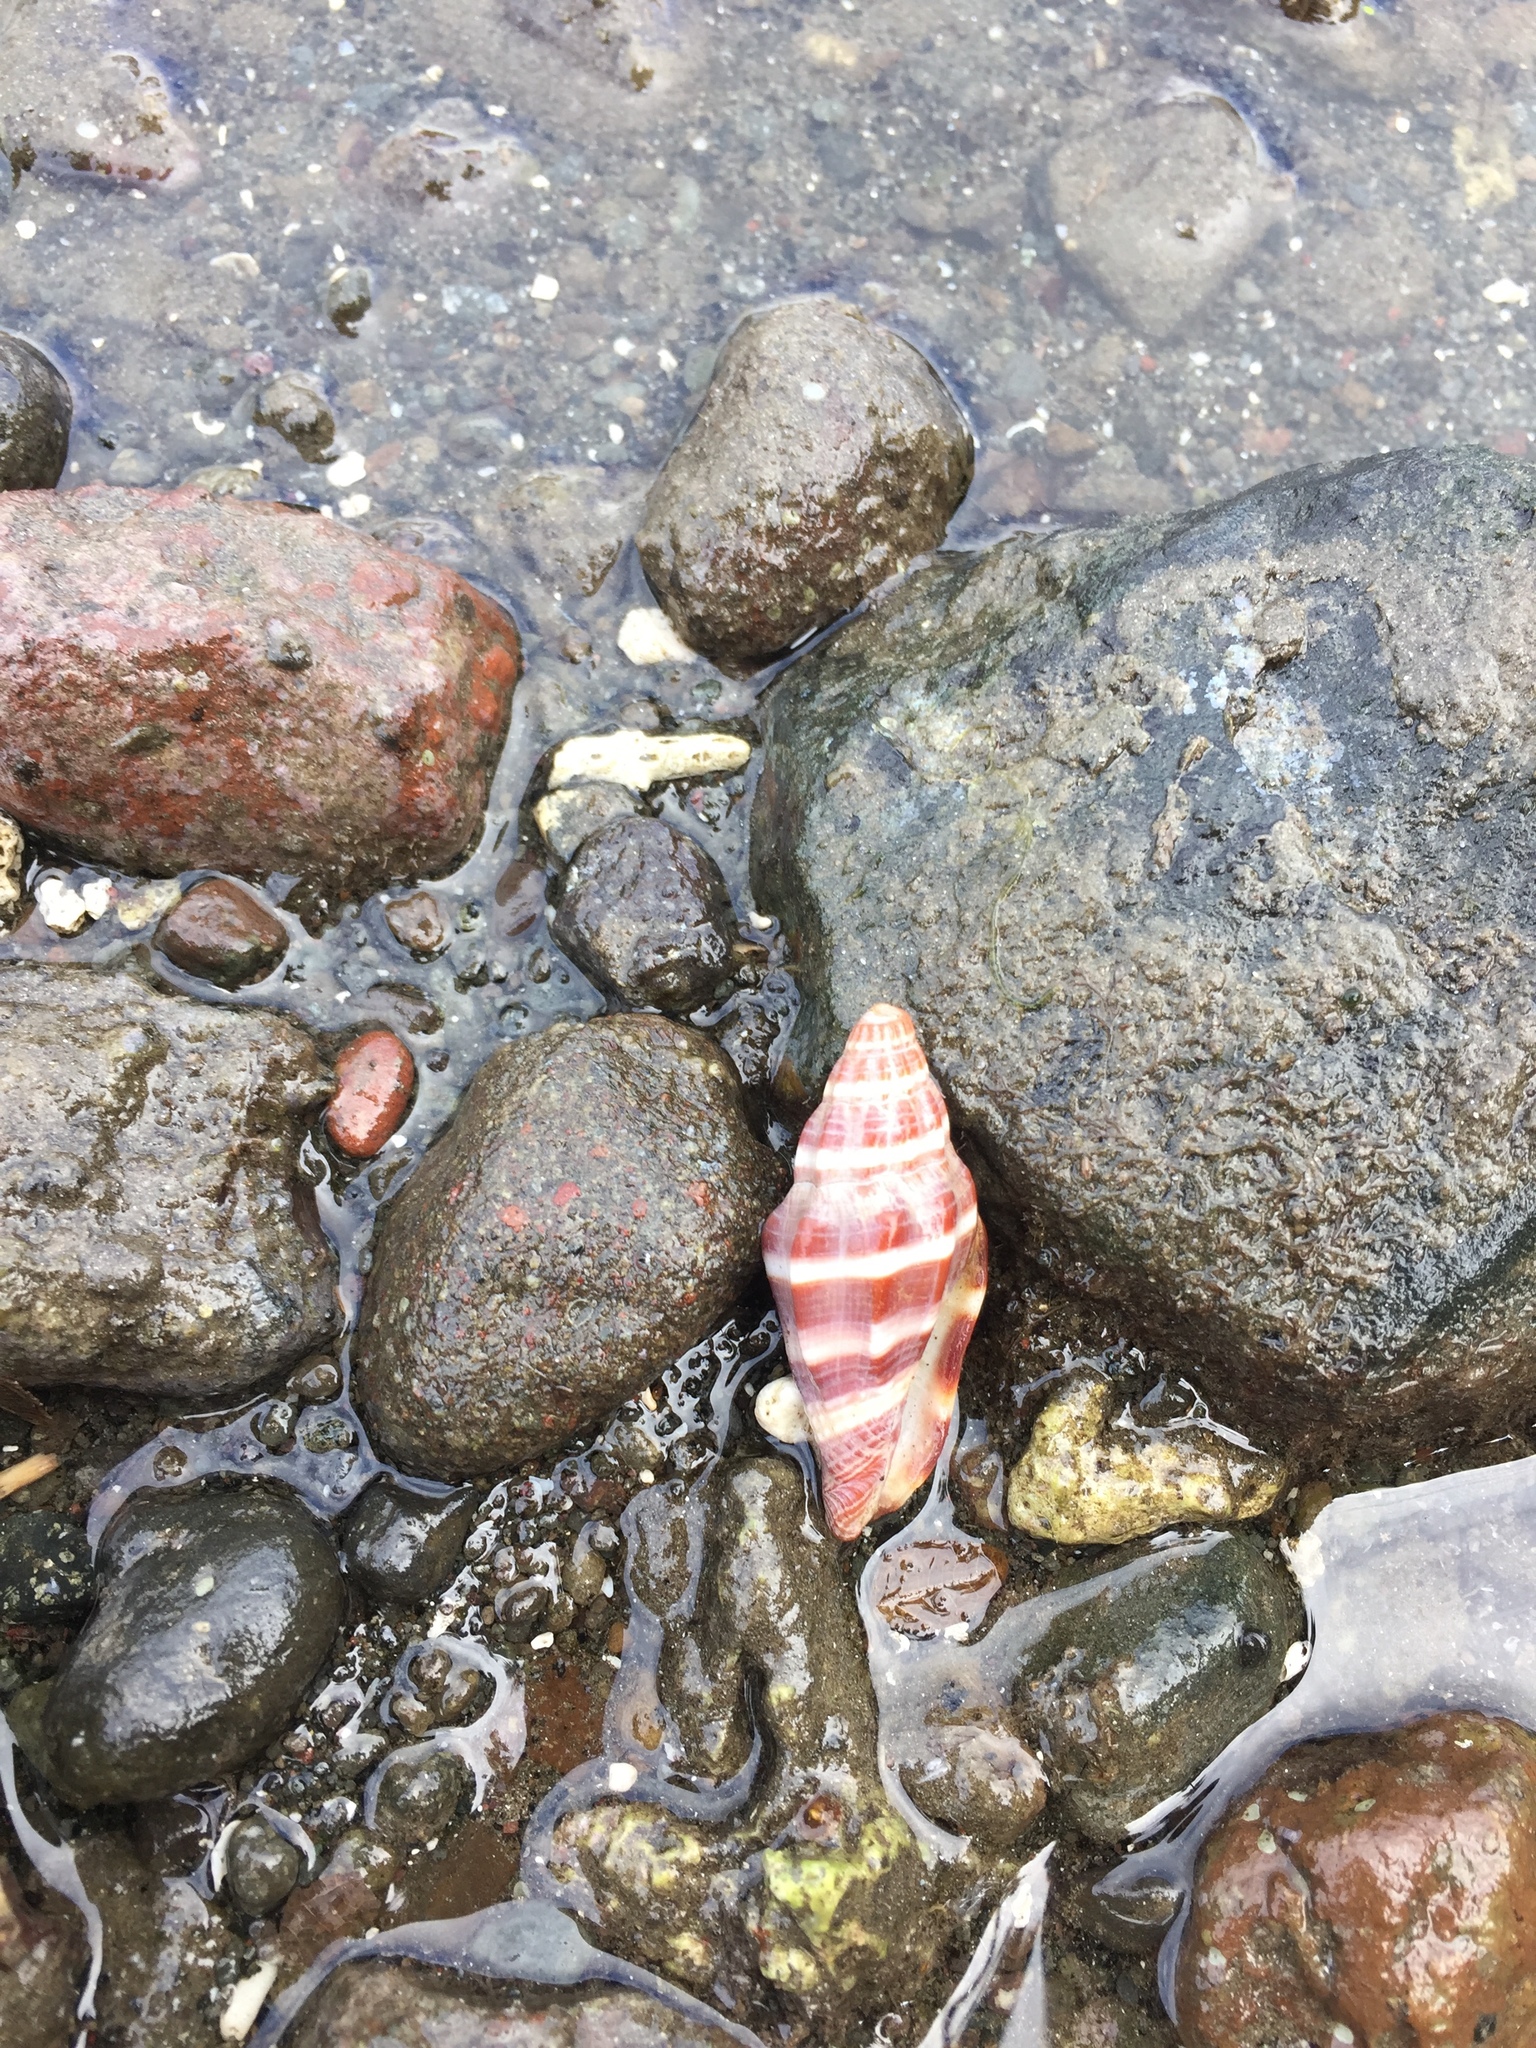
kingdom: Animalia
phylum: Mollusca
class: Gastropoda
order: Neogastropoda
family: Costellariidae
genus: Vexillum
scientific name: Vexillum vulpecula
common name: Little fox miter
